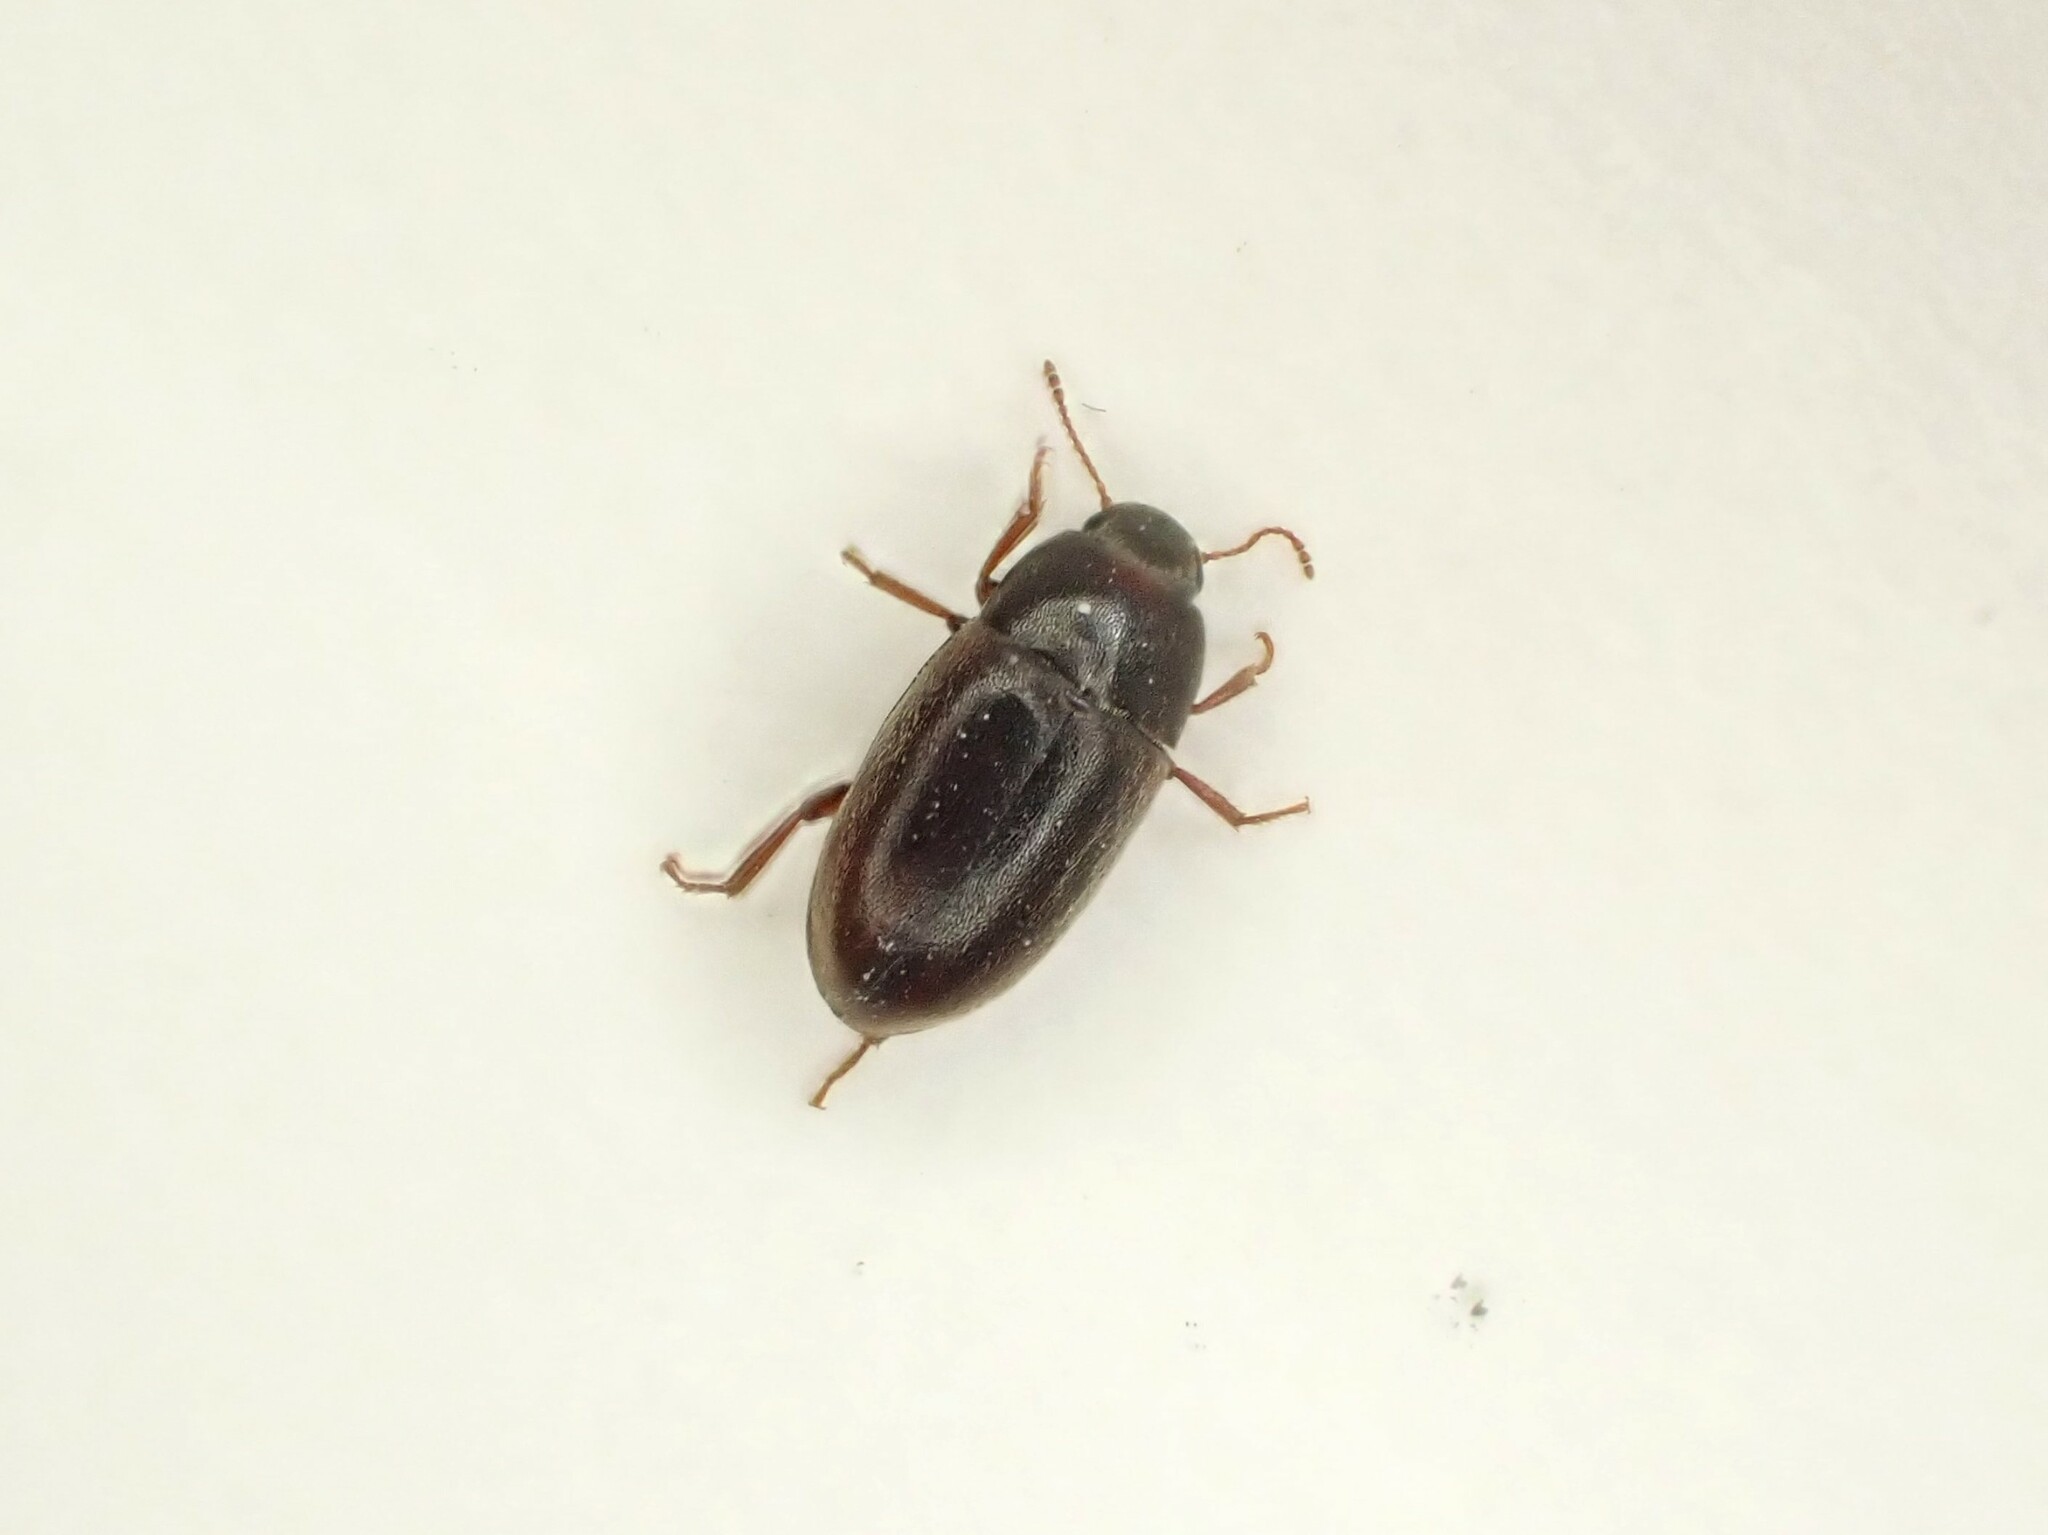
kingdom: Animalia
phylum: Arthropoda
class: Insecta
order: Coleoptera
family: Archeocrypticidae
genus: Enneboeus
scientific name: Enneboeus
